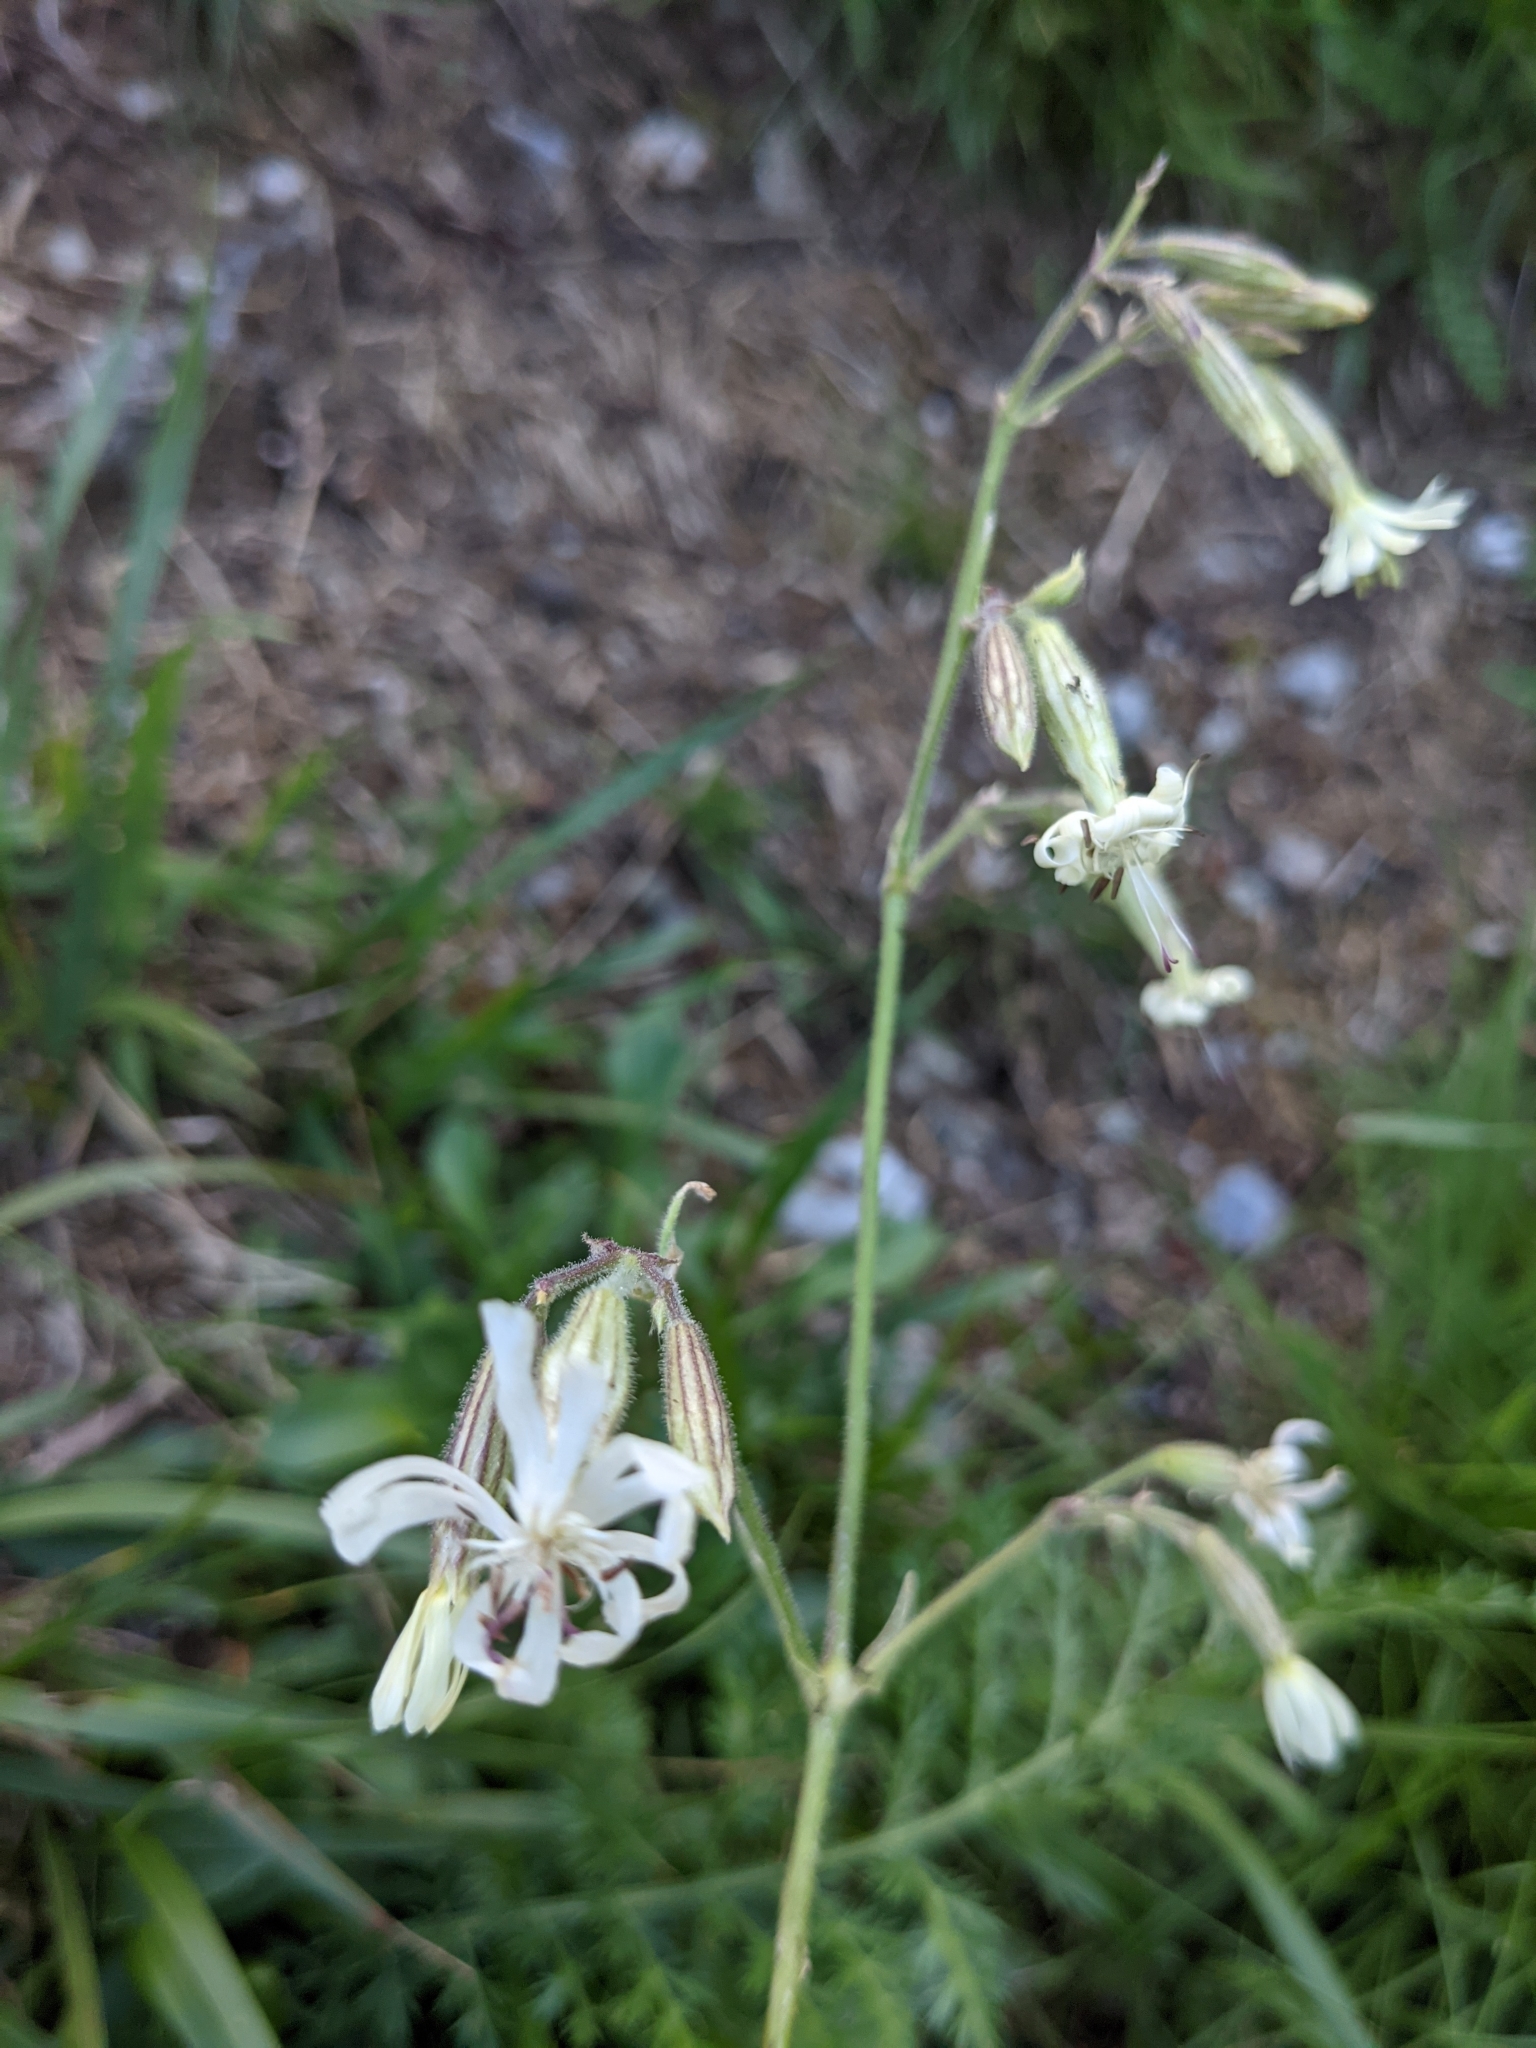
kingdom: Plantae
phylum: Tracheophyta
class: Magnoliopsida
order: Caryophyllales
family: Caryophyllaceae
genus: Silene
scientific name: Silene nutans
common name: Nottingham catchfly
